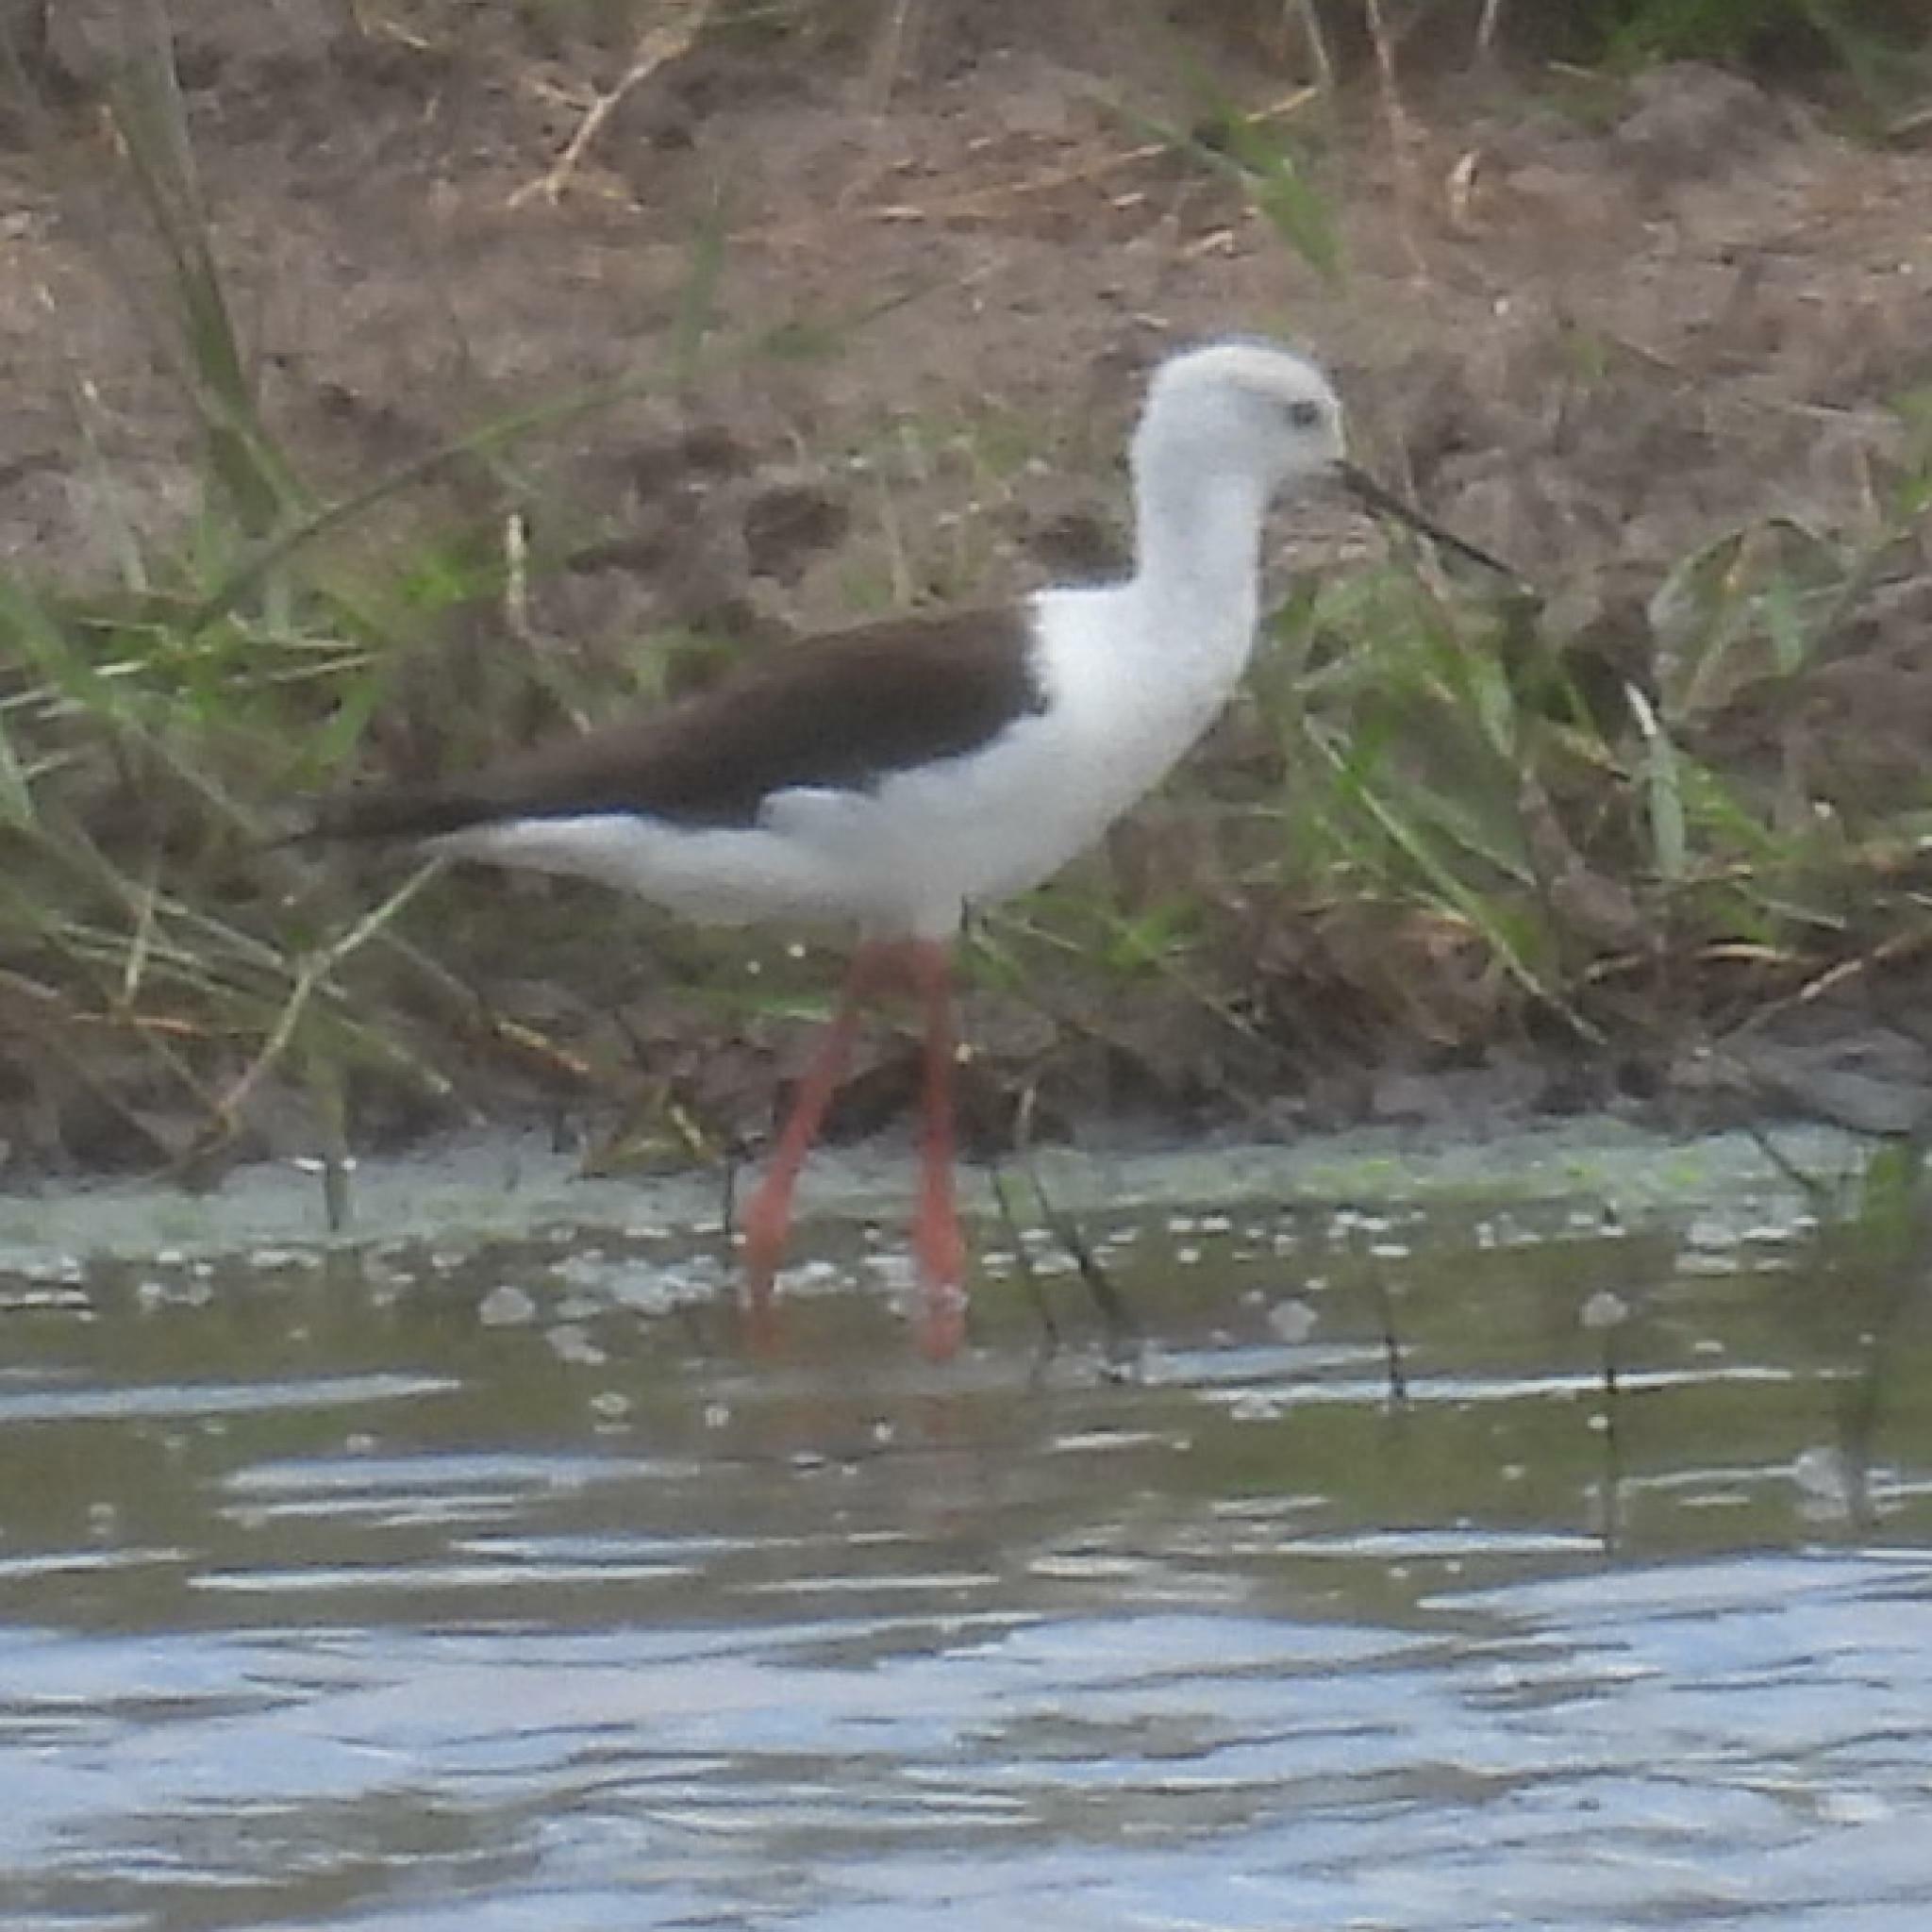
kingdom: Animalia
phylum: Chordata
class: Aves
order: Charadriiformes
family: Recurvirostridae
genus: Himantopus
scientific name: Himantopus himantopus
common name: Black-winged stilt
